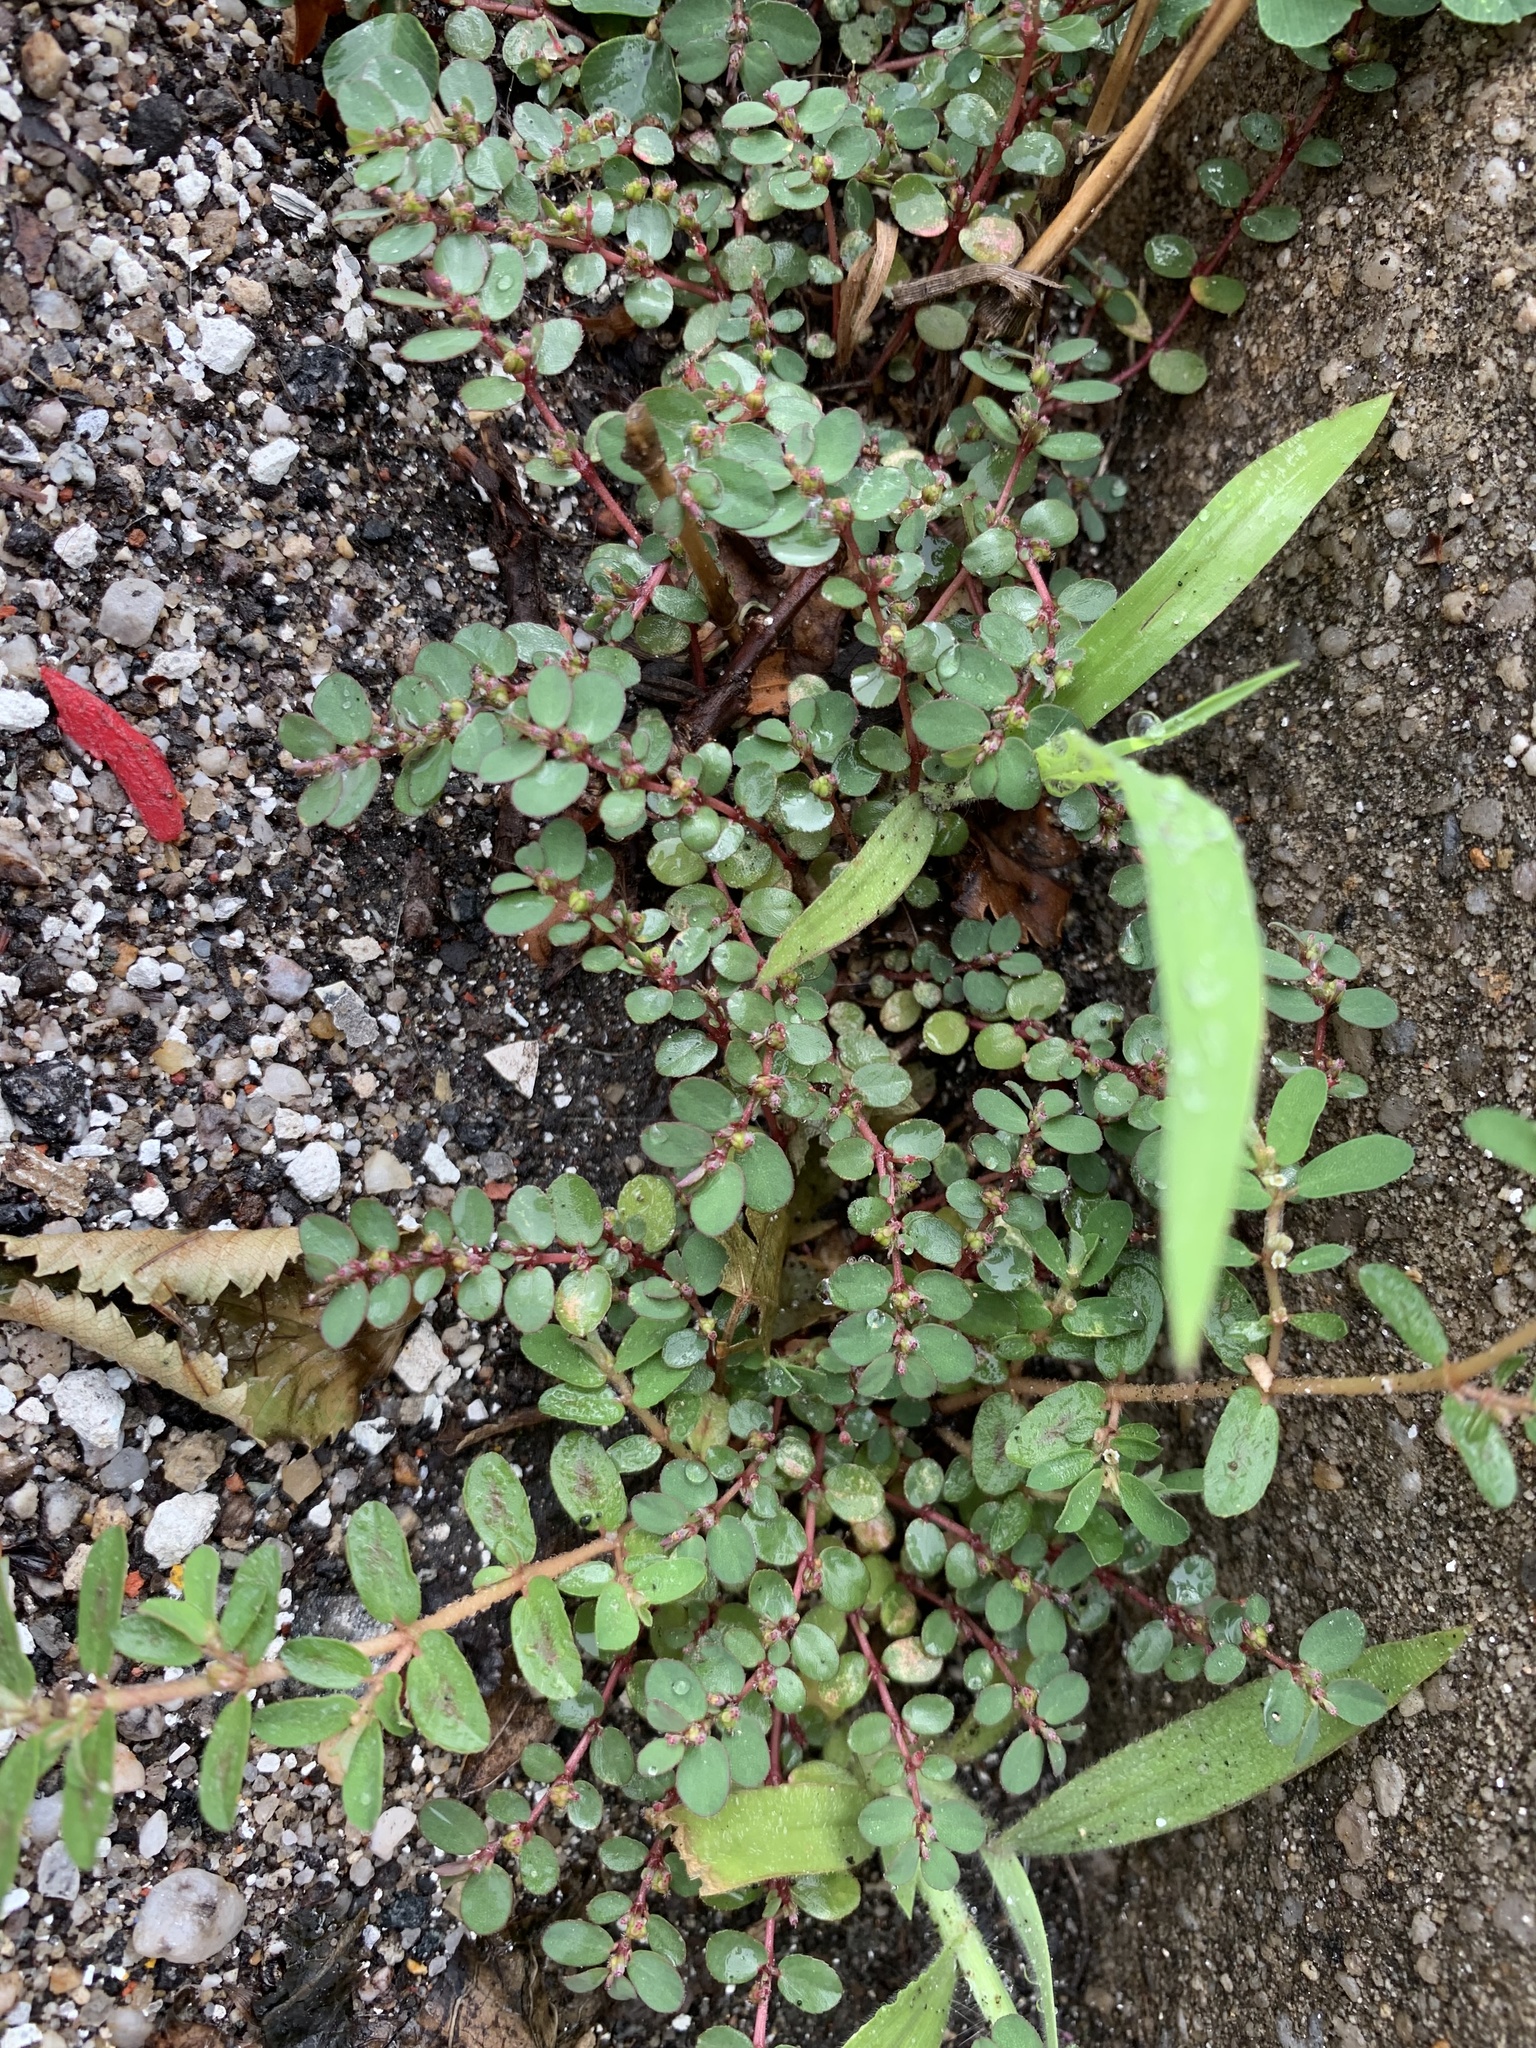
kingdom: Plantae
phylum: Tracheophyta
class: Magnoliopsida
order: Malpighiales
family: Euphorbiaceae
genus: Euphorbia
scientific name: Euphorbia prostrata
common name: Prostrate sandmat
